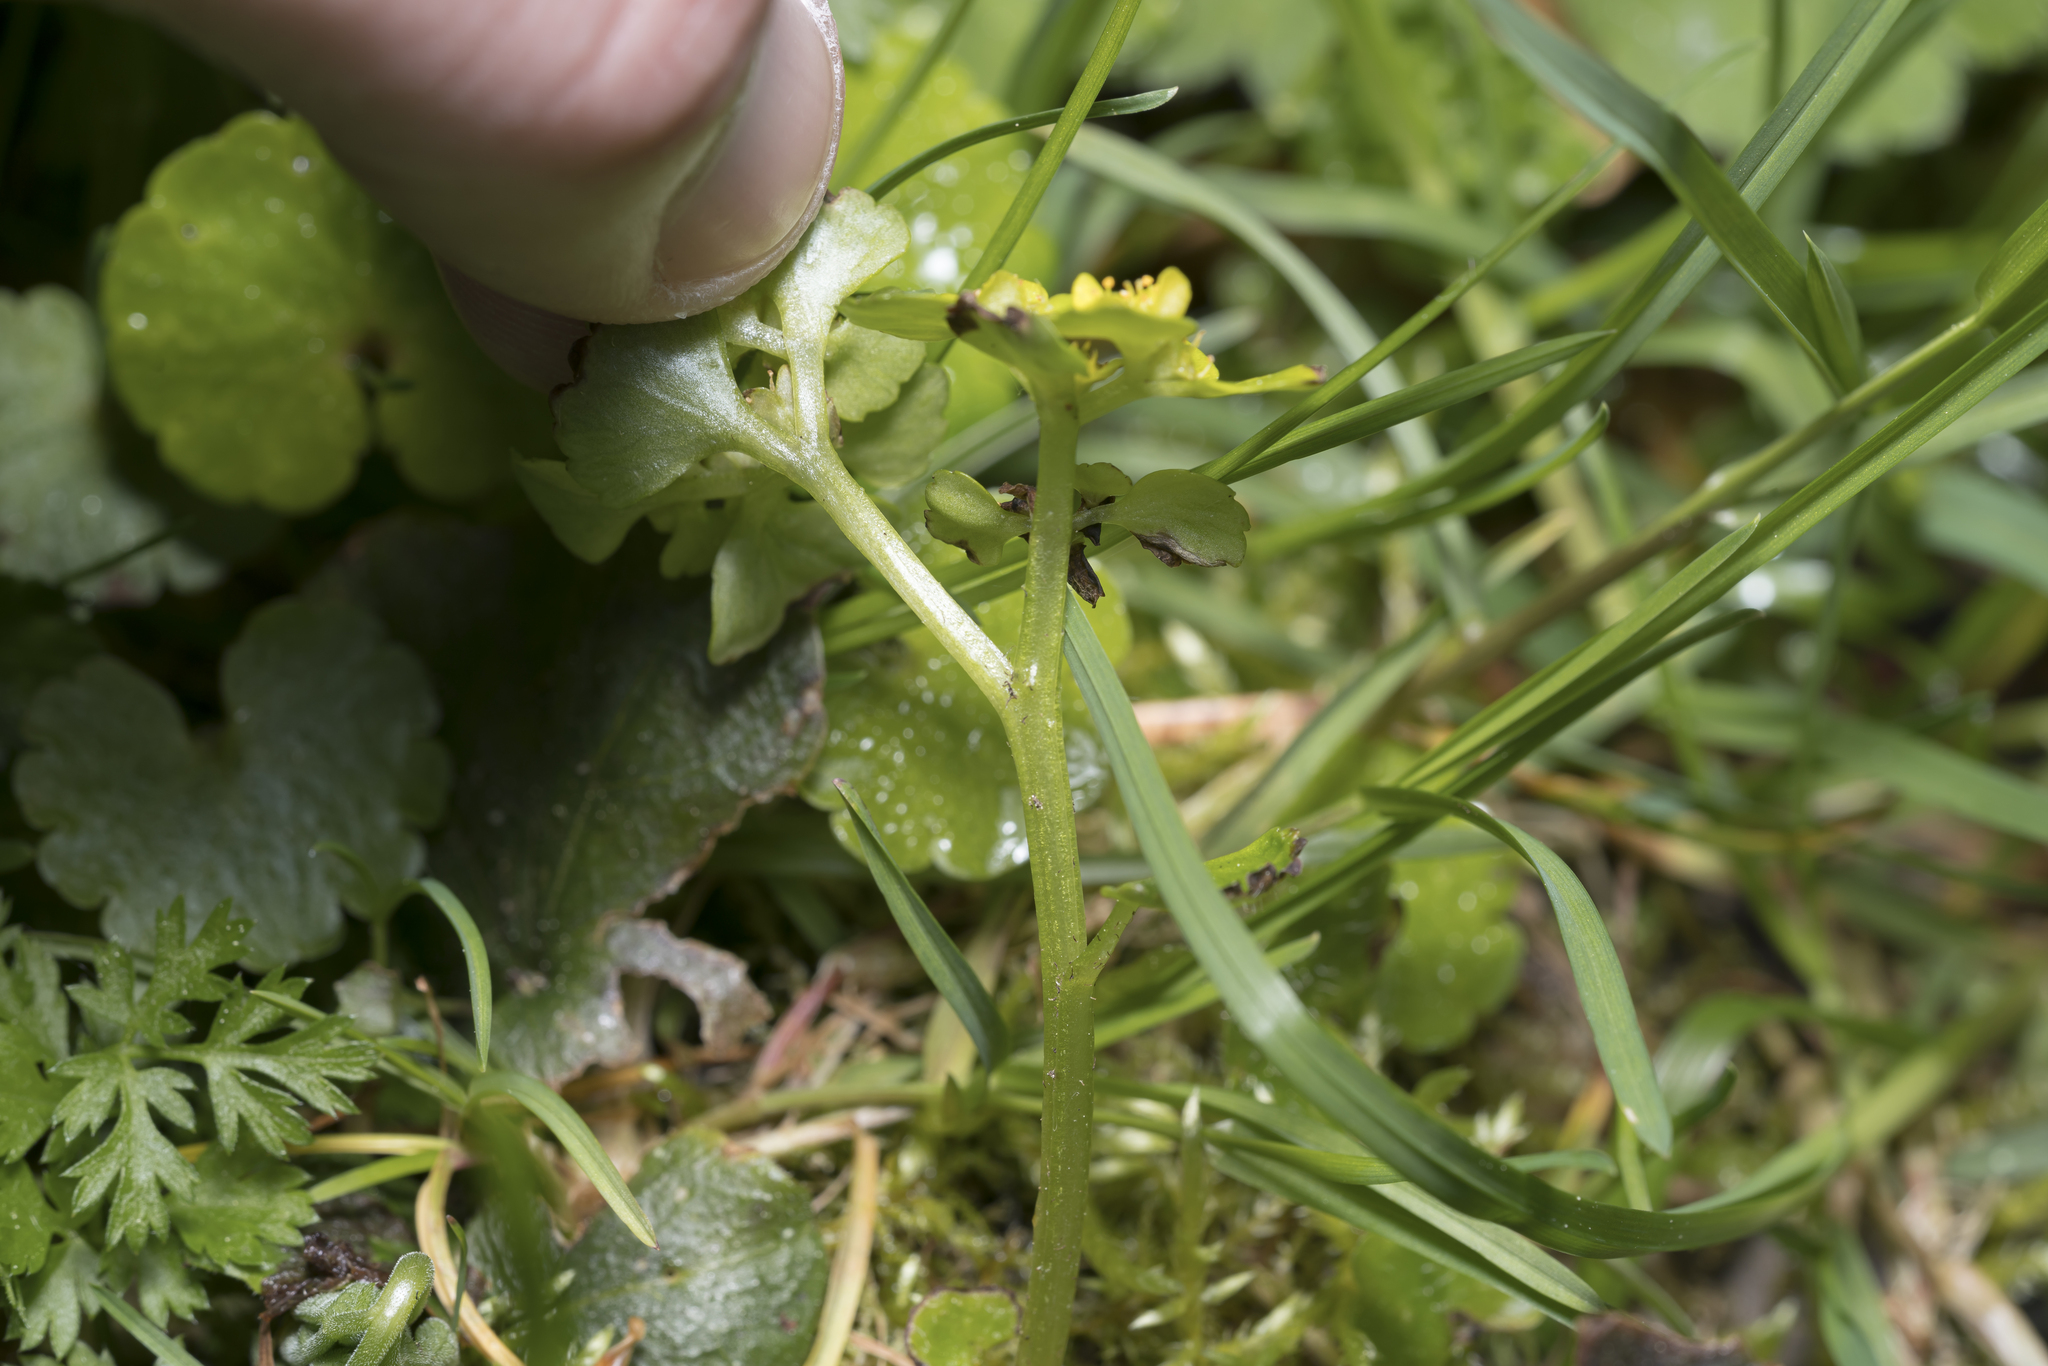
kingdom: Plantae
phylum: Tracheophyta
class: Magnoliopsida
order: Saxifragales
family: Saxifragaceae
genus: Chrysosplenium
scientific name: Chrysosplenium alternifolium
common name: Alternate-leaved golden-saxifrage
